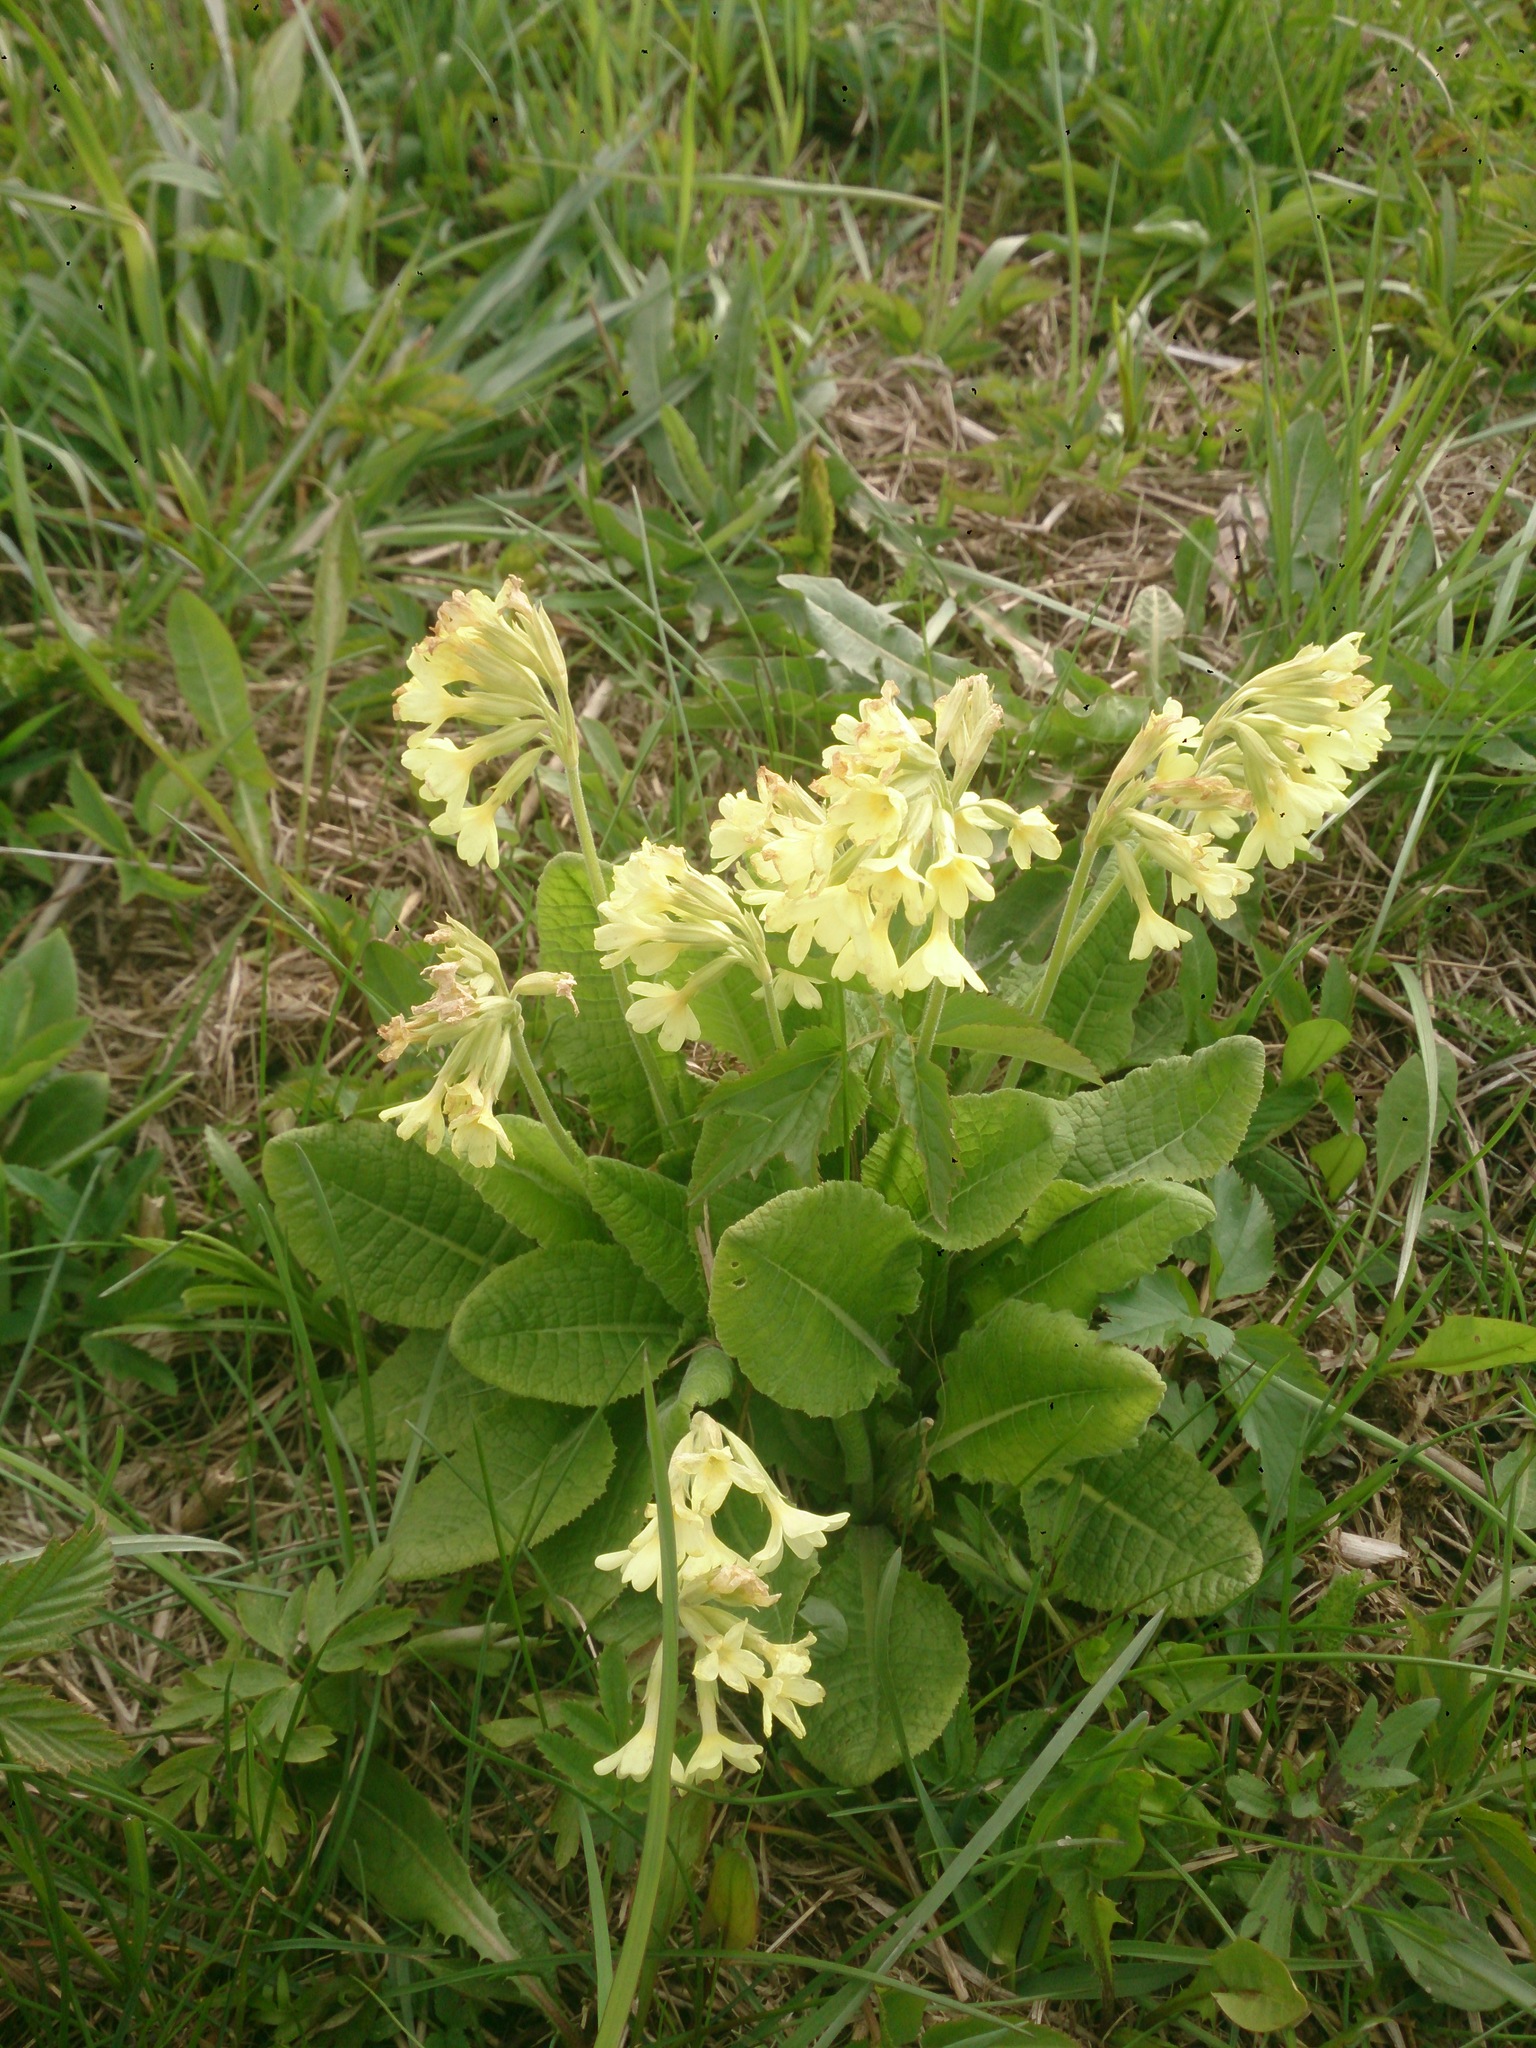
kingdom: Plantae
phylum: Tracheophyta
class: Magnoliopsida
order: Ericales
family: Primulaceae
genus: Primula
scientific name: Primula elatior
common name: Oxlip
